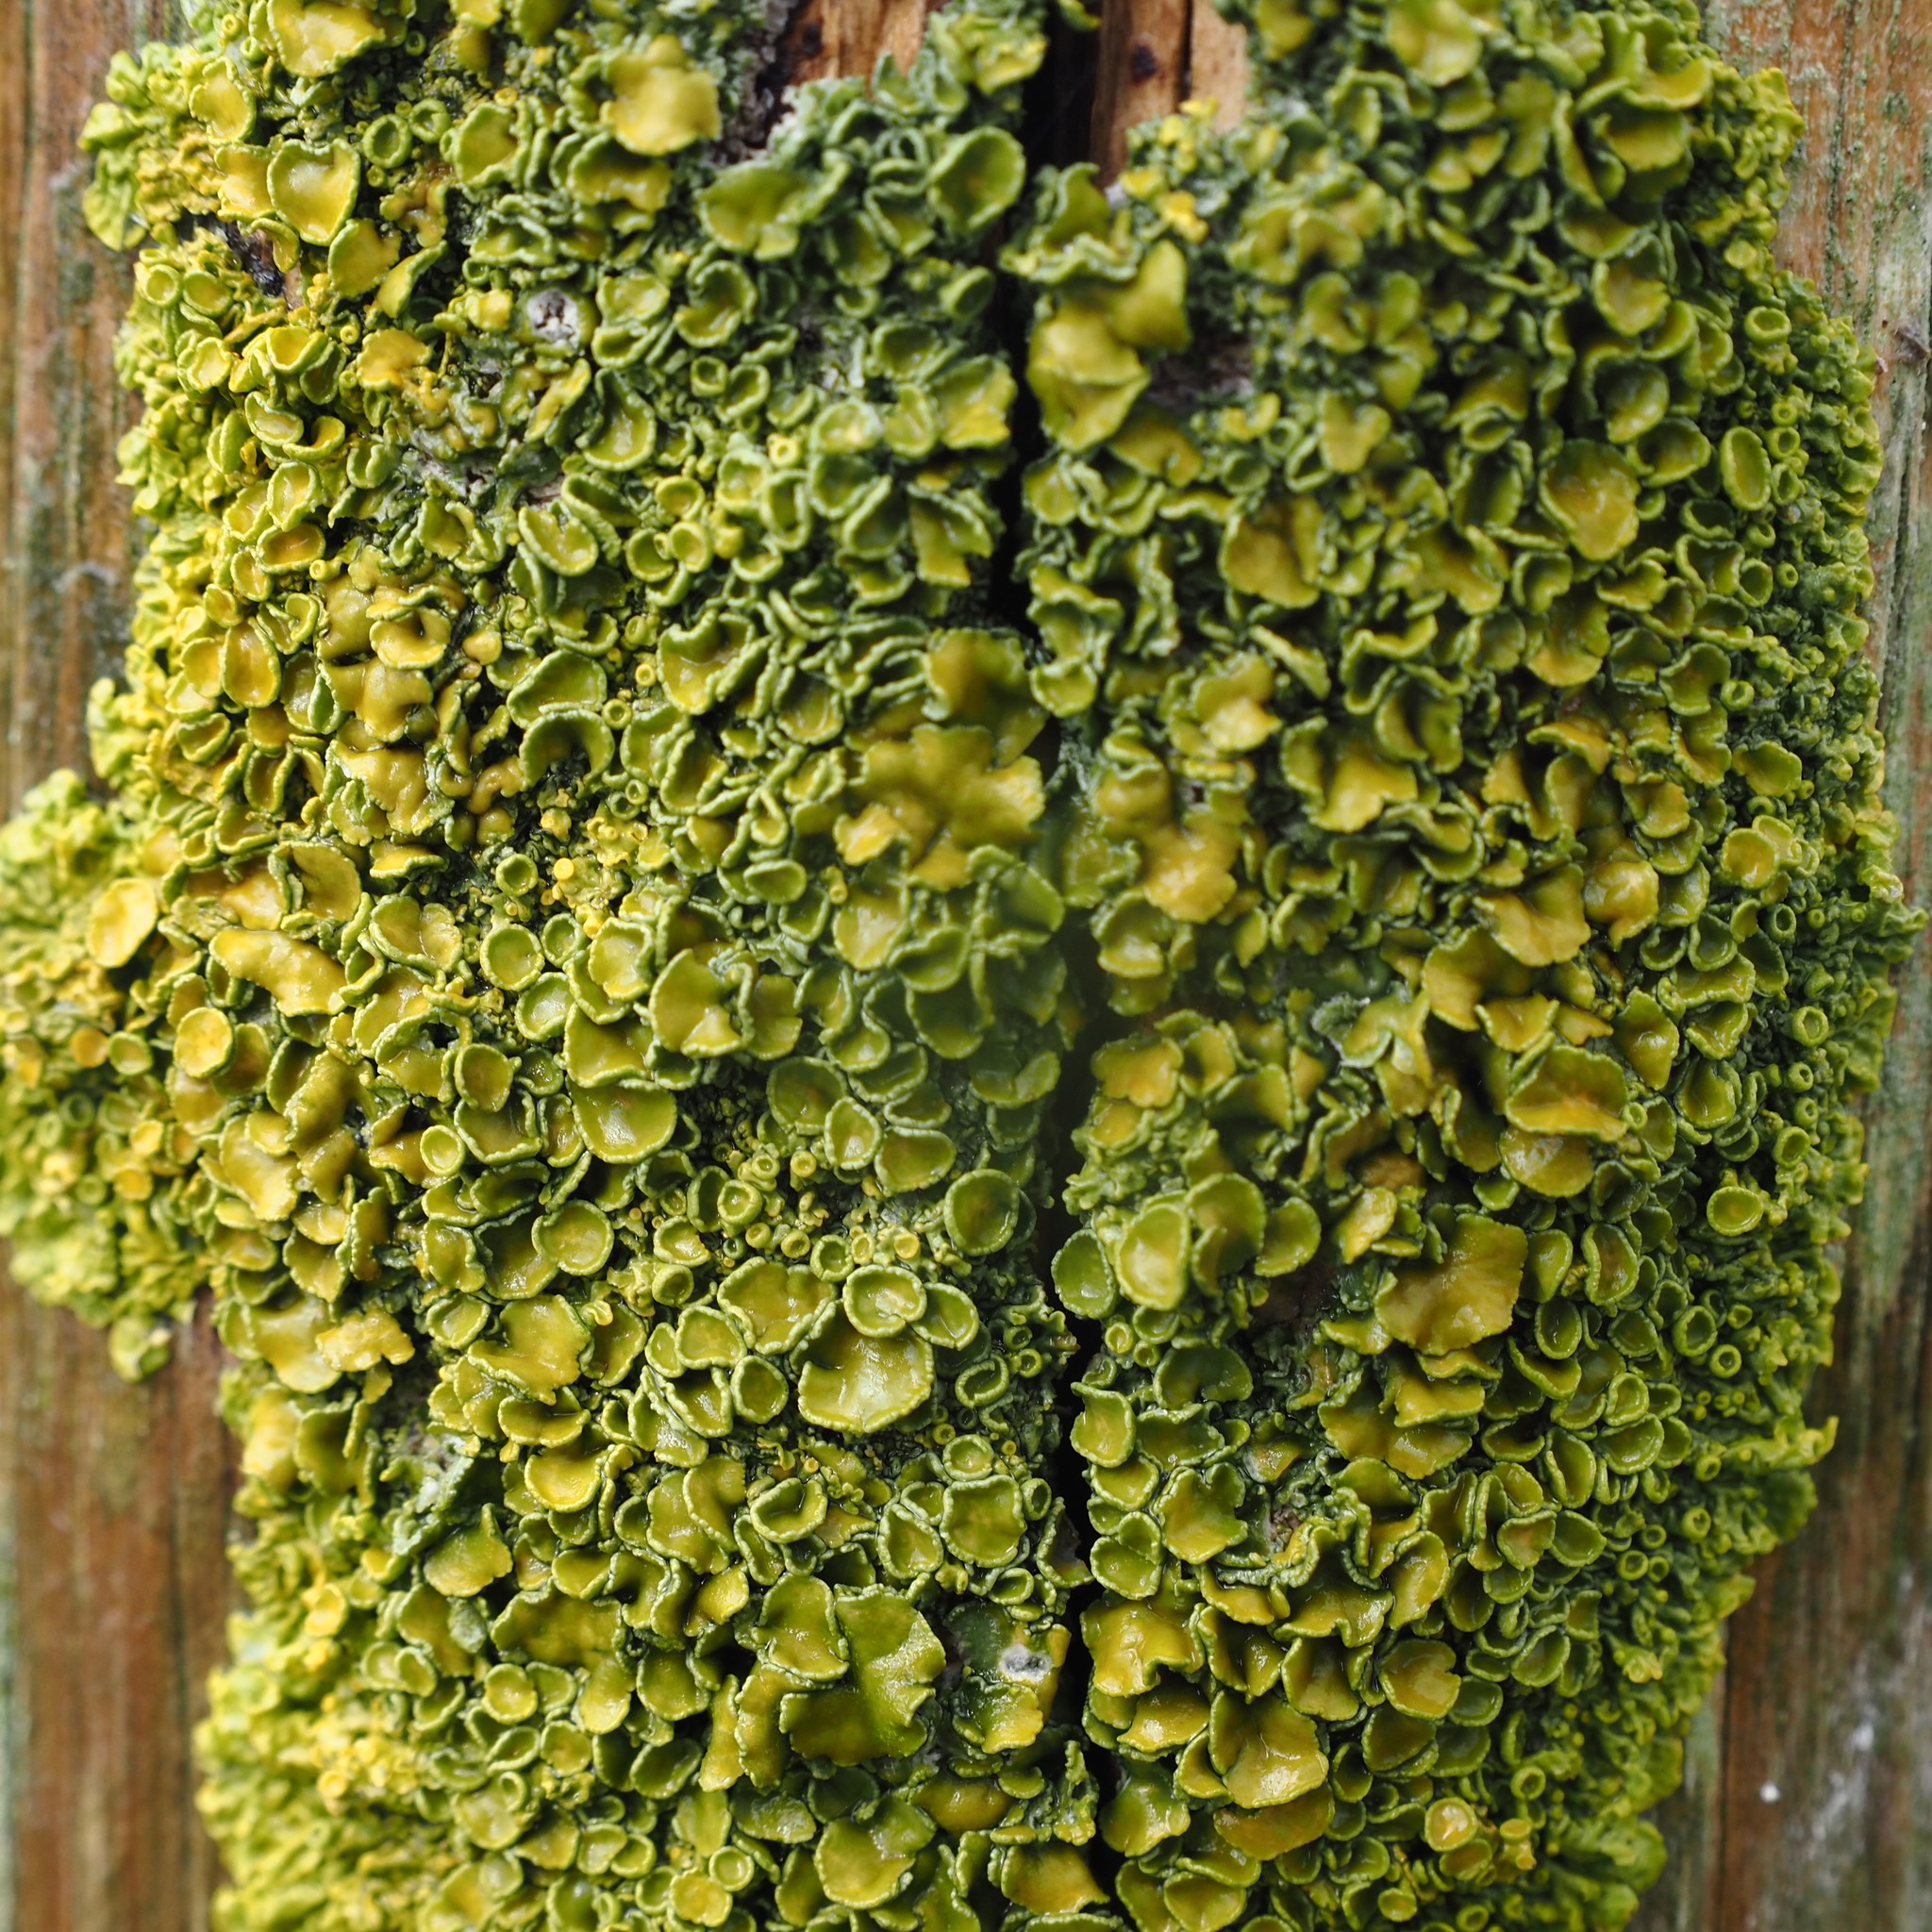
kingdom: Fungi
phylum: Ascomycota
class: Lecanoromycetes
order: Teloschistales
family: Teloschistaceae
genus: Xanthoria
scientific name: Xanthoria parietina
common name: Common orange lichen
